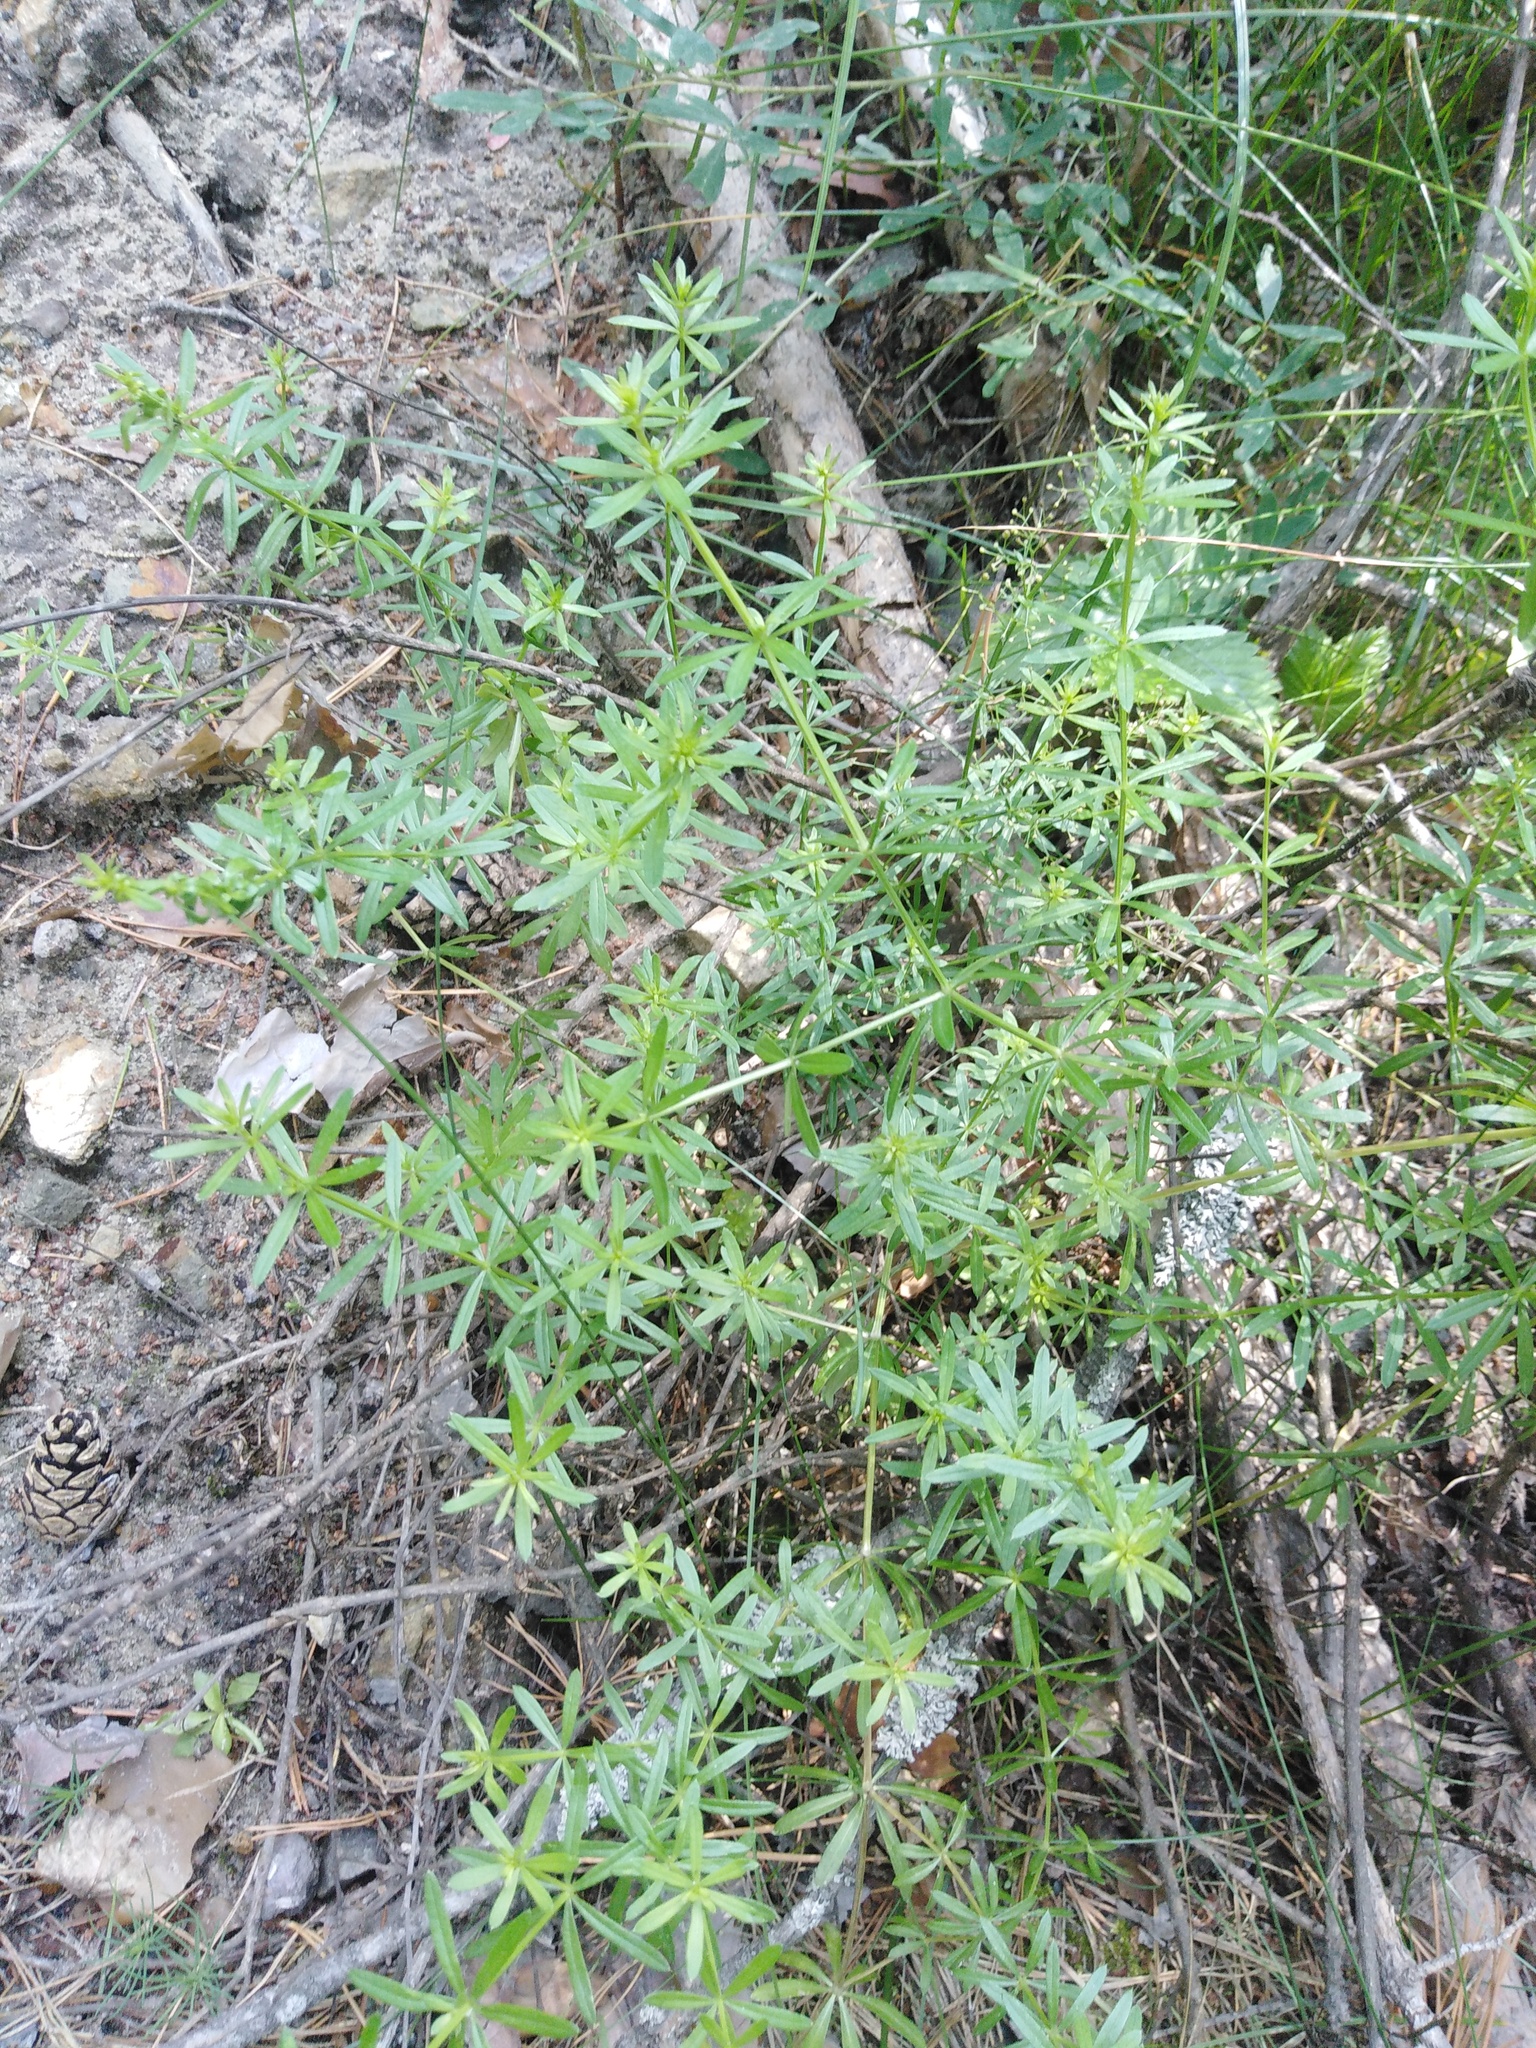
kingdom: Plantae
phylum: Tracheophyta
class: Magnoliopsida
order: Gentianales
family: Rubiaceae
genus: Galium
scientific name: Galium mollugo
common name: Hedge bedstraw
